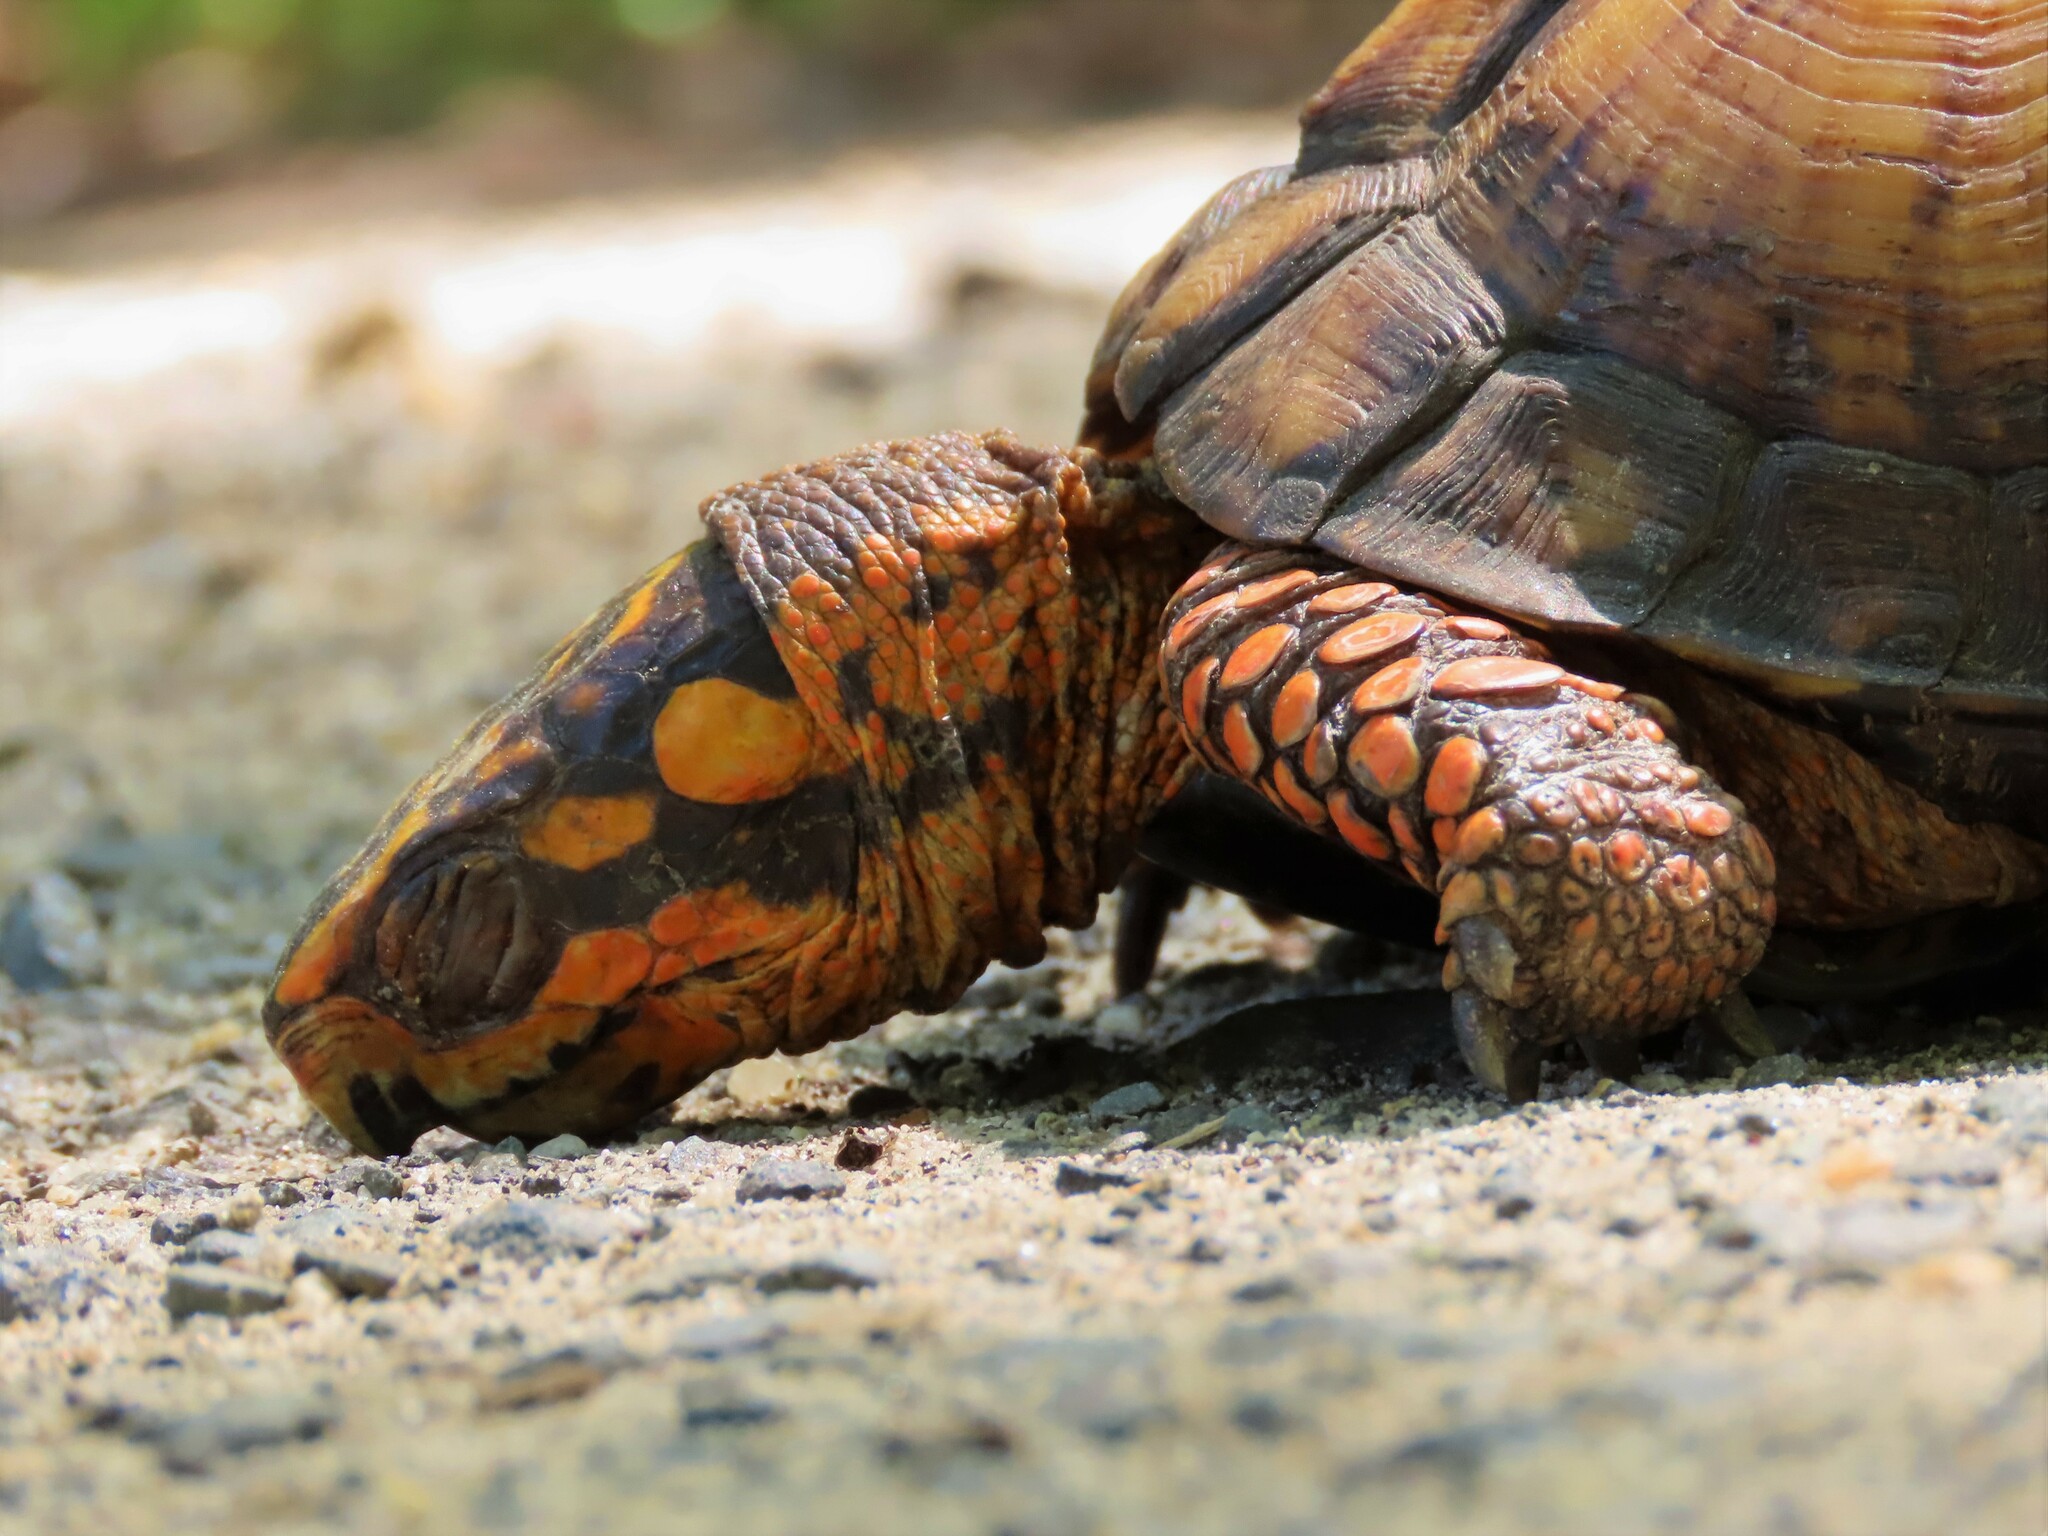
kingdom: Animalia
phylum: Chordata
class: Testudines
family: Emydidae
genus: Terrapene
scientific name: Terrapene carolina
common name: Common box turtle
